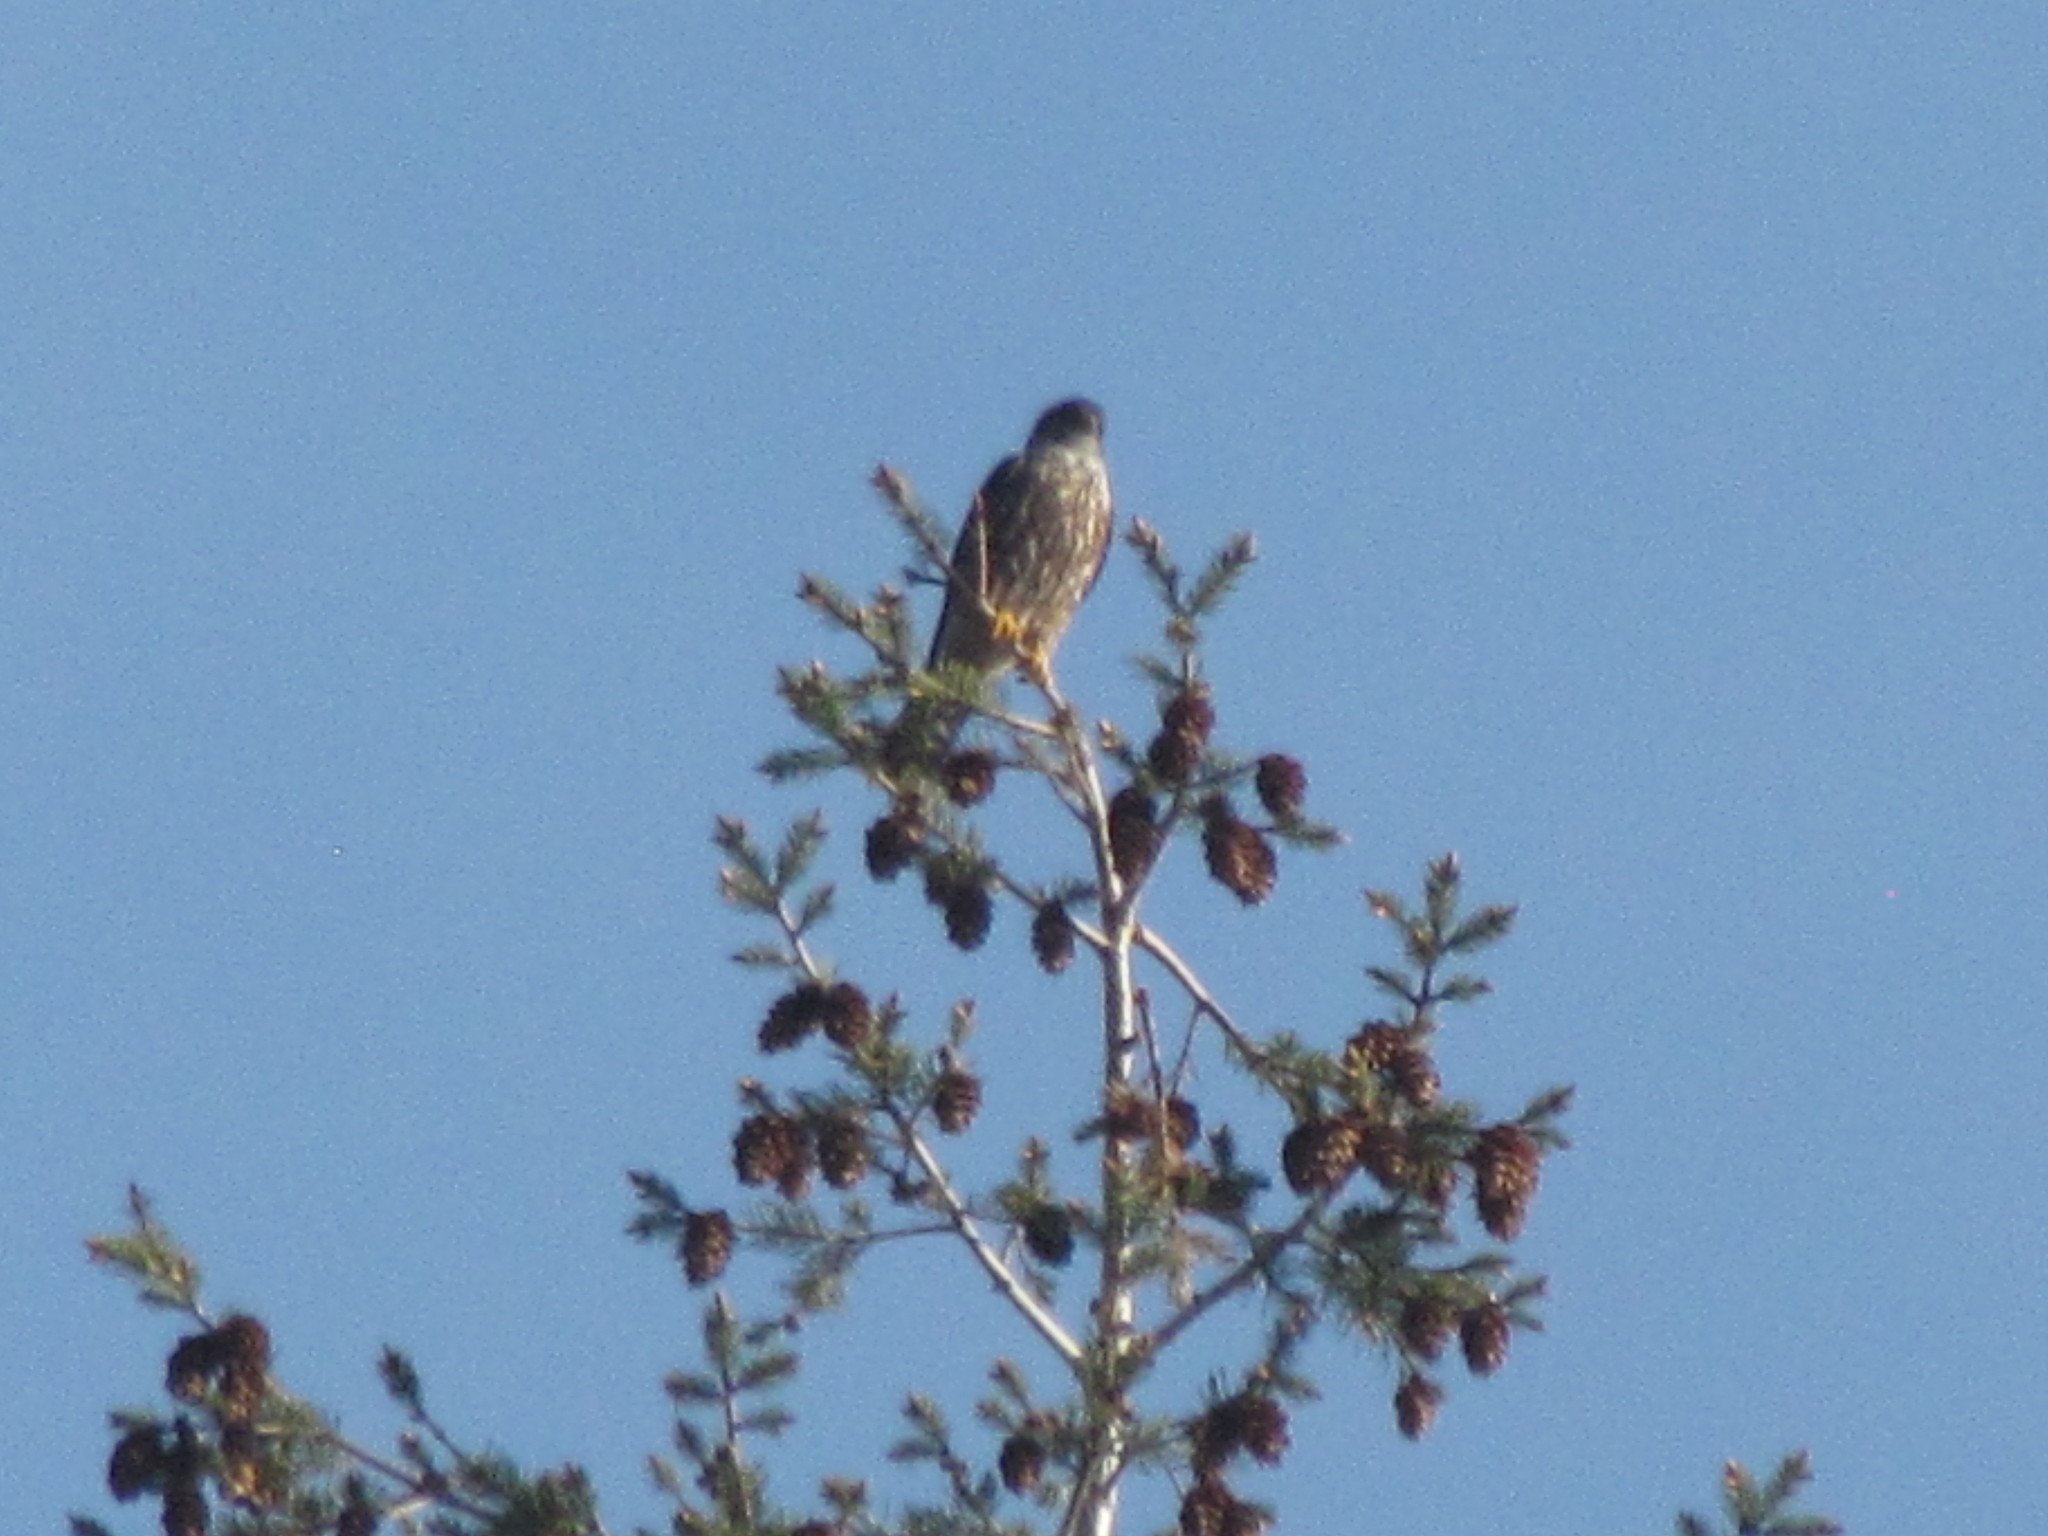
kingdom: Animalia
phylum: Chordata
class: Aves
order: Falconiformes
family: Falconidae
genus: Falco
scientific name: Falco columbarius
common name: Merlin
